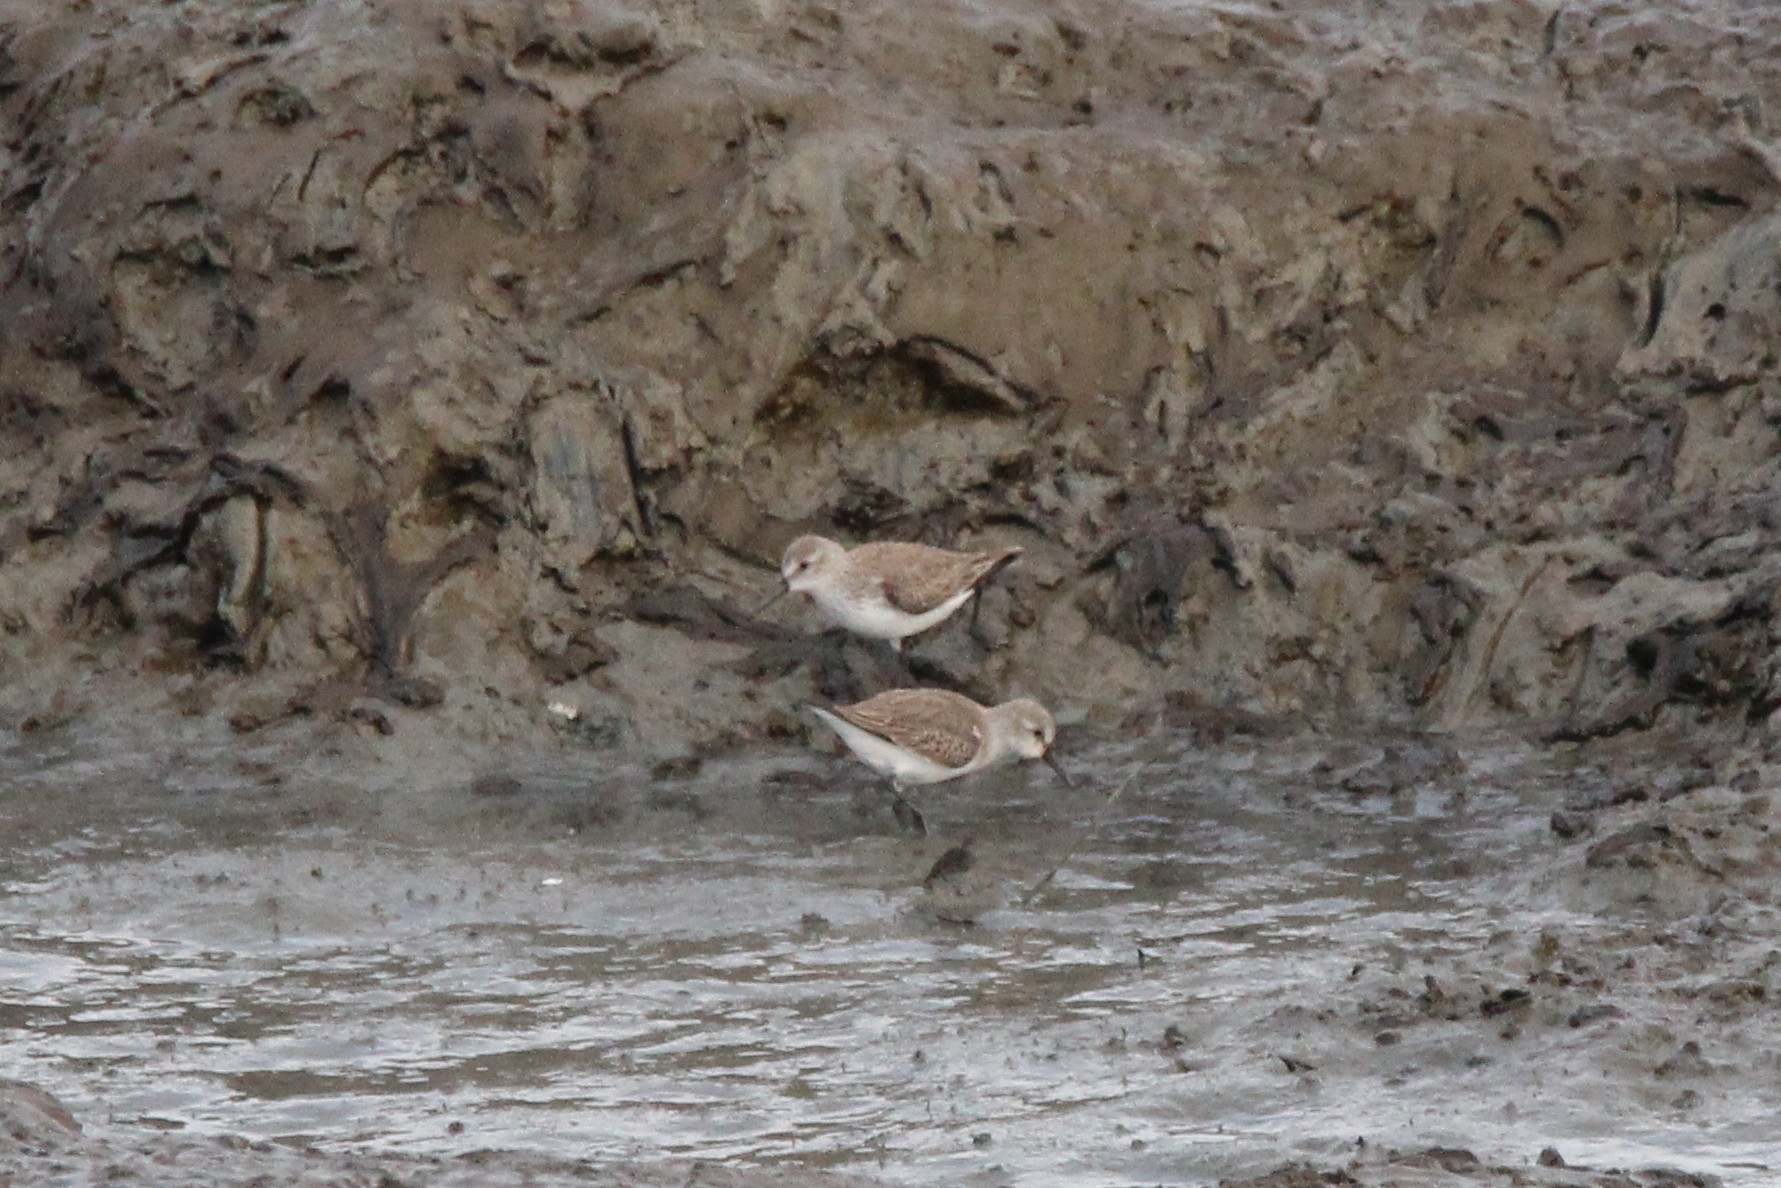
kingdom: Animalia
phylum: Chordata
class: Aves
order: Charadriiformes
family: Scolopacidae
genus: Calidris
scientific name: Calidris mauri
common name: Western sandpiper
